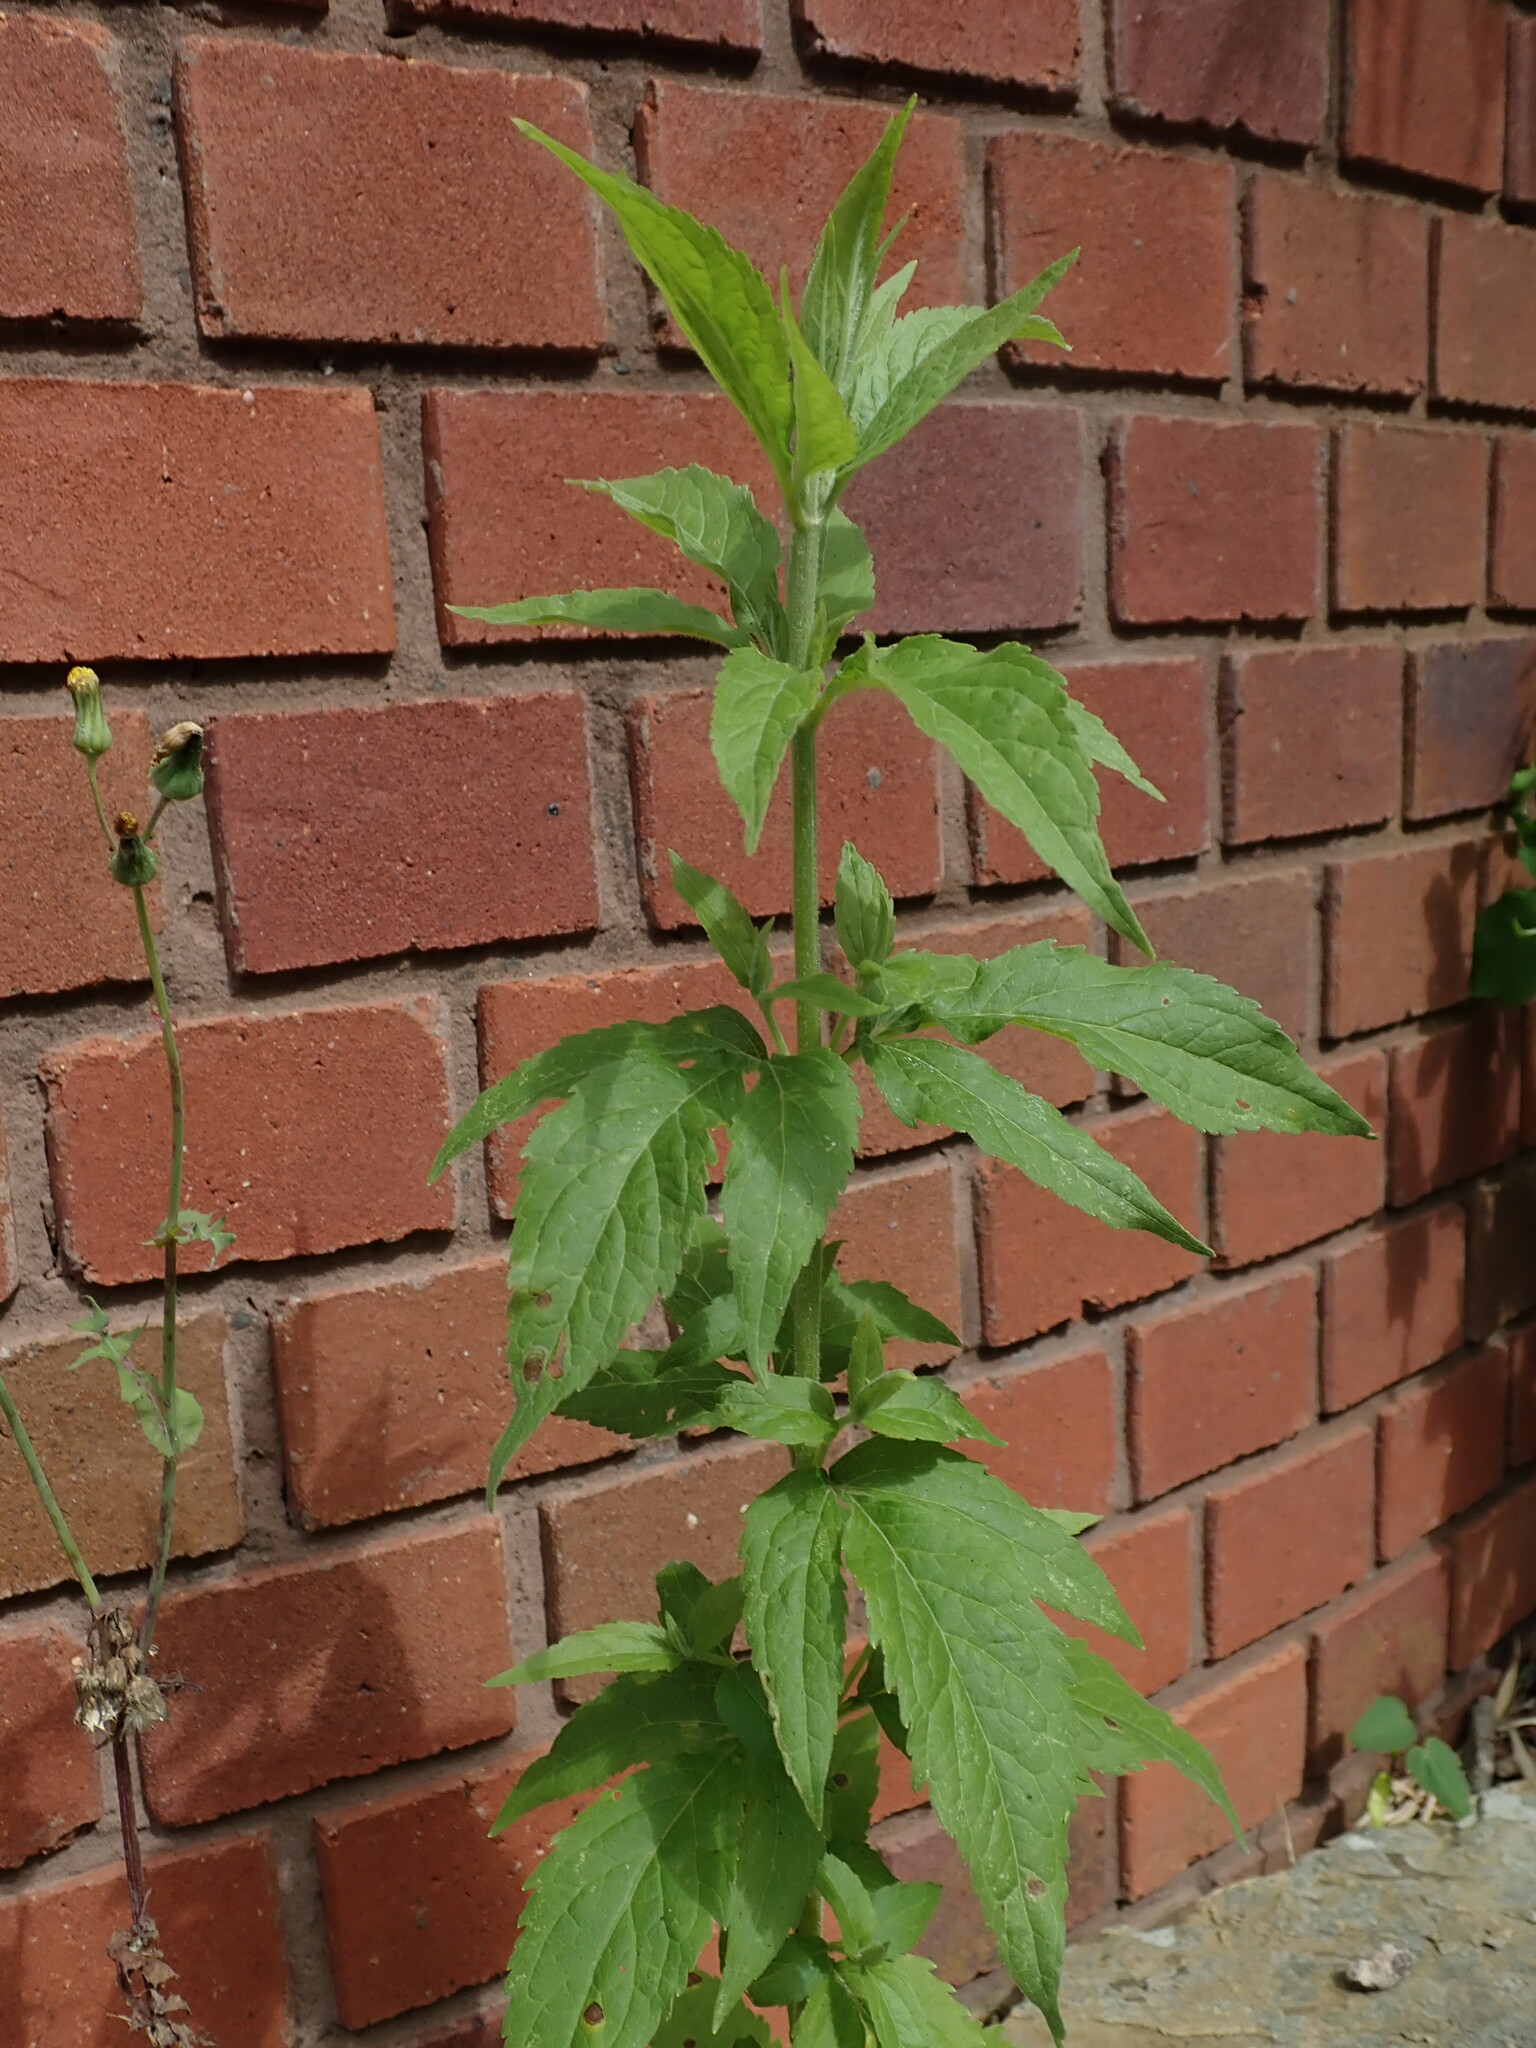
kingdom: Plantae
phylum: Tracheophyta
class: Magnoliopsida
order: Asterales
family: Asteraceae
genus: Eupatorium
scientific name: Eupatorium cannabinum
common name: Hemp-agrimony
